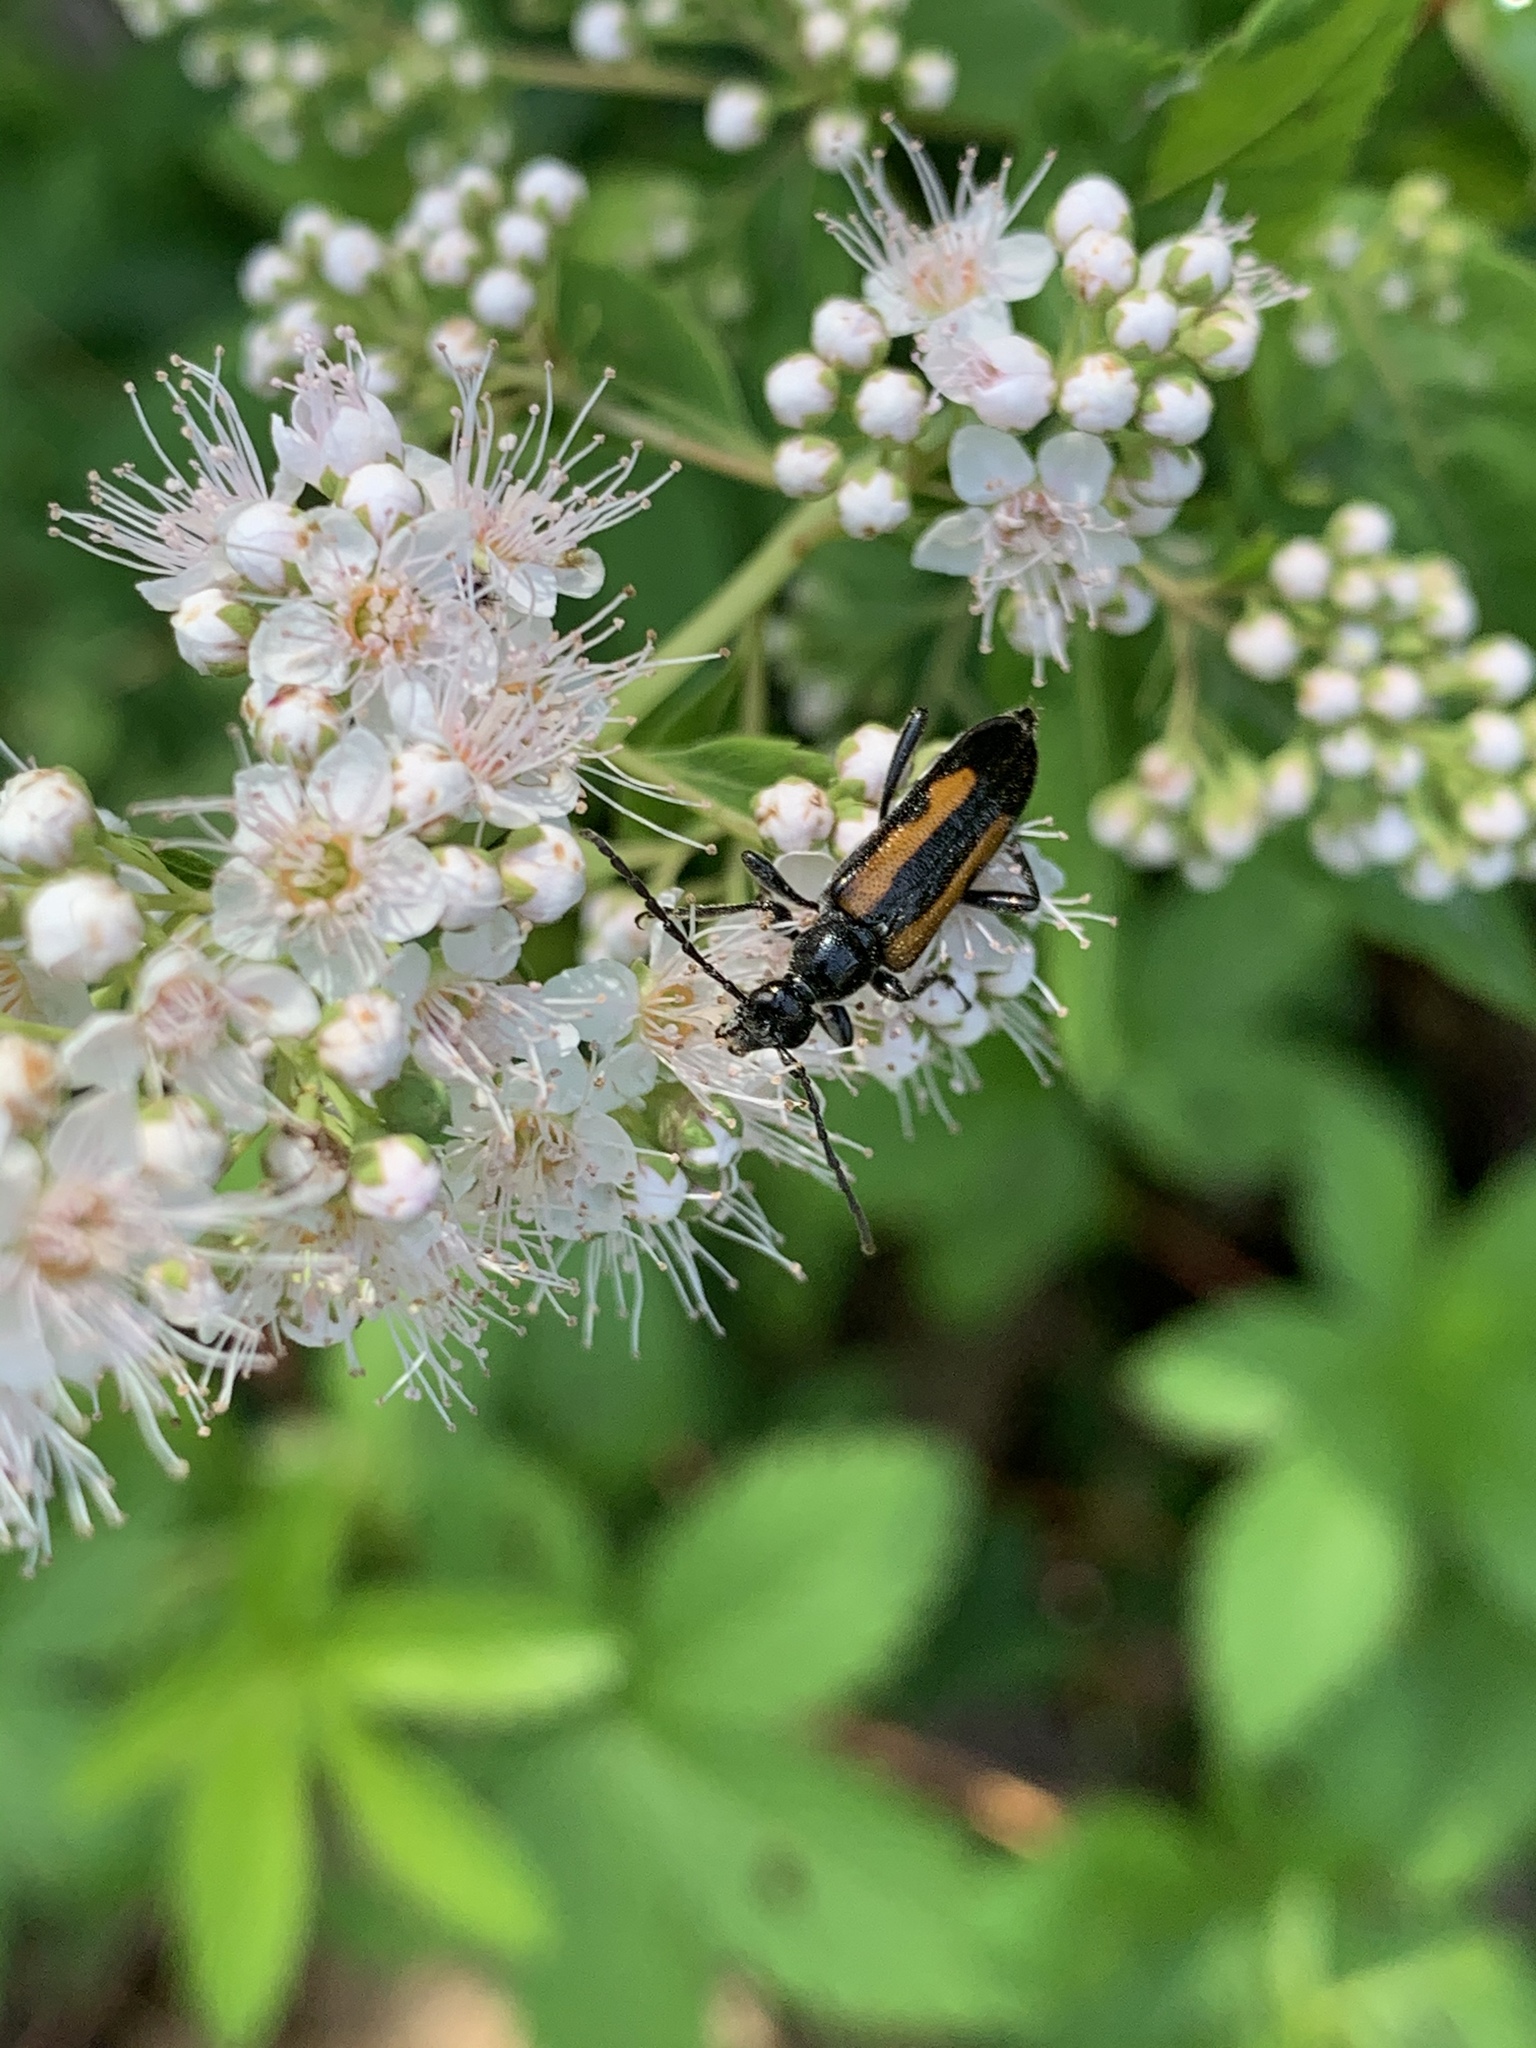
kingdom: Animalia
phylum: Arthropoda
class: Insecta
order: Coleoptera
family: Cerambycidae
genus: Strangalepta
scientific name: Strangalepta abbreviata
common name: Strangalepta flower longhorn beetle
